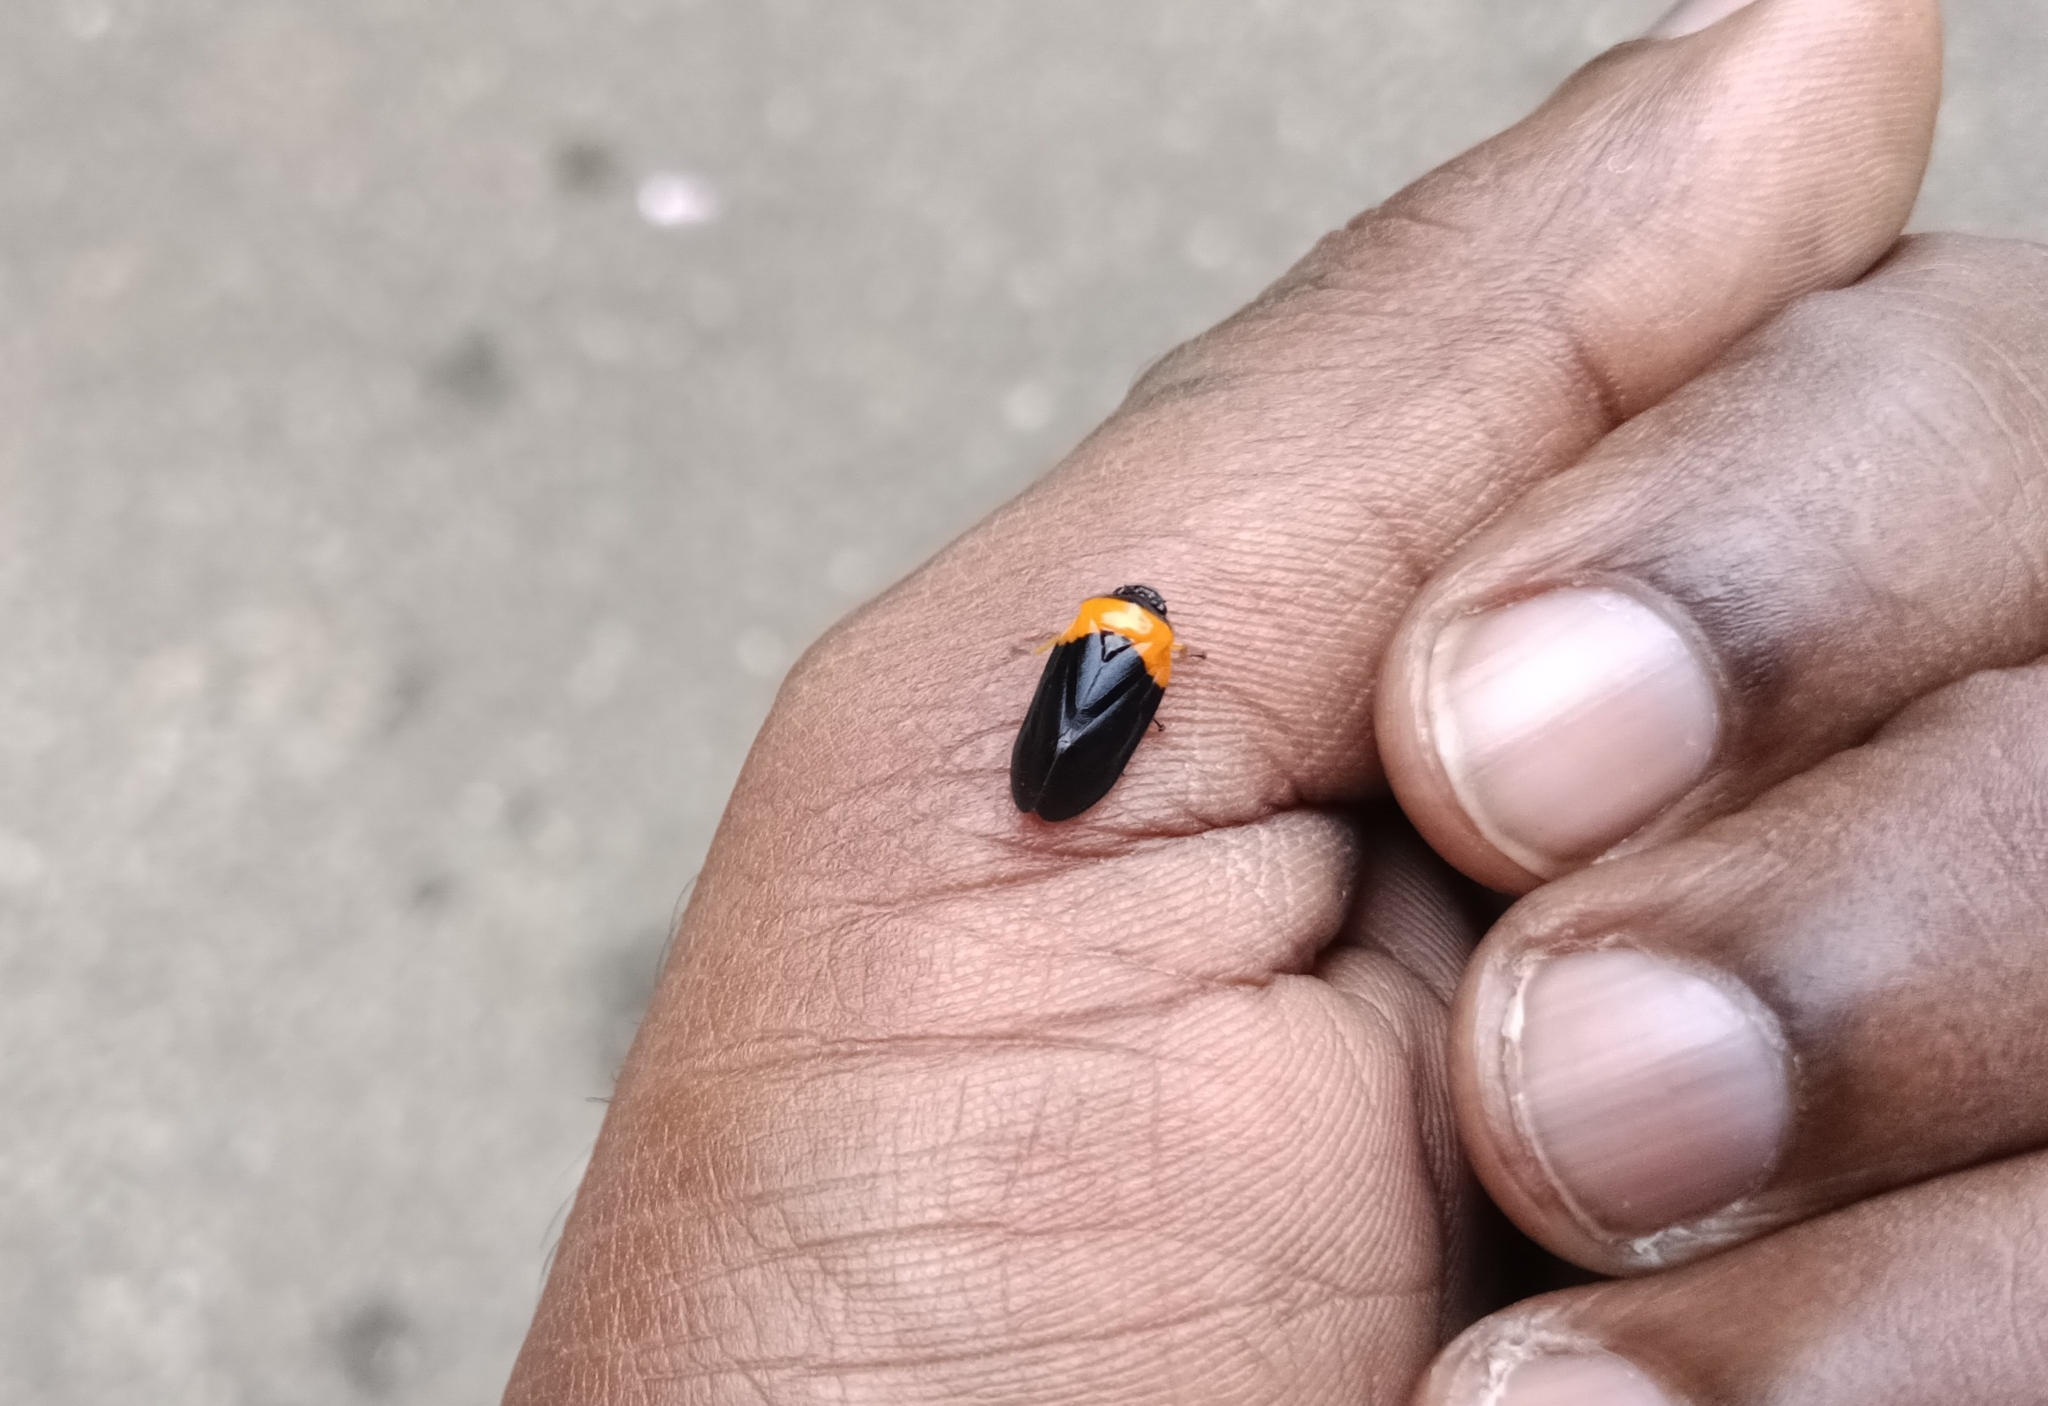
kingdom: Animalia
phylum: Arthropoda
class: Insecta
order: Hemiptera
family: Cercopidae
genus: Phymatostetha
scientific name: Phymatostetha deschampsi
